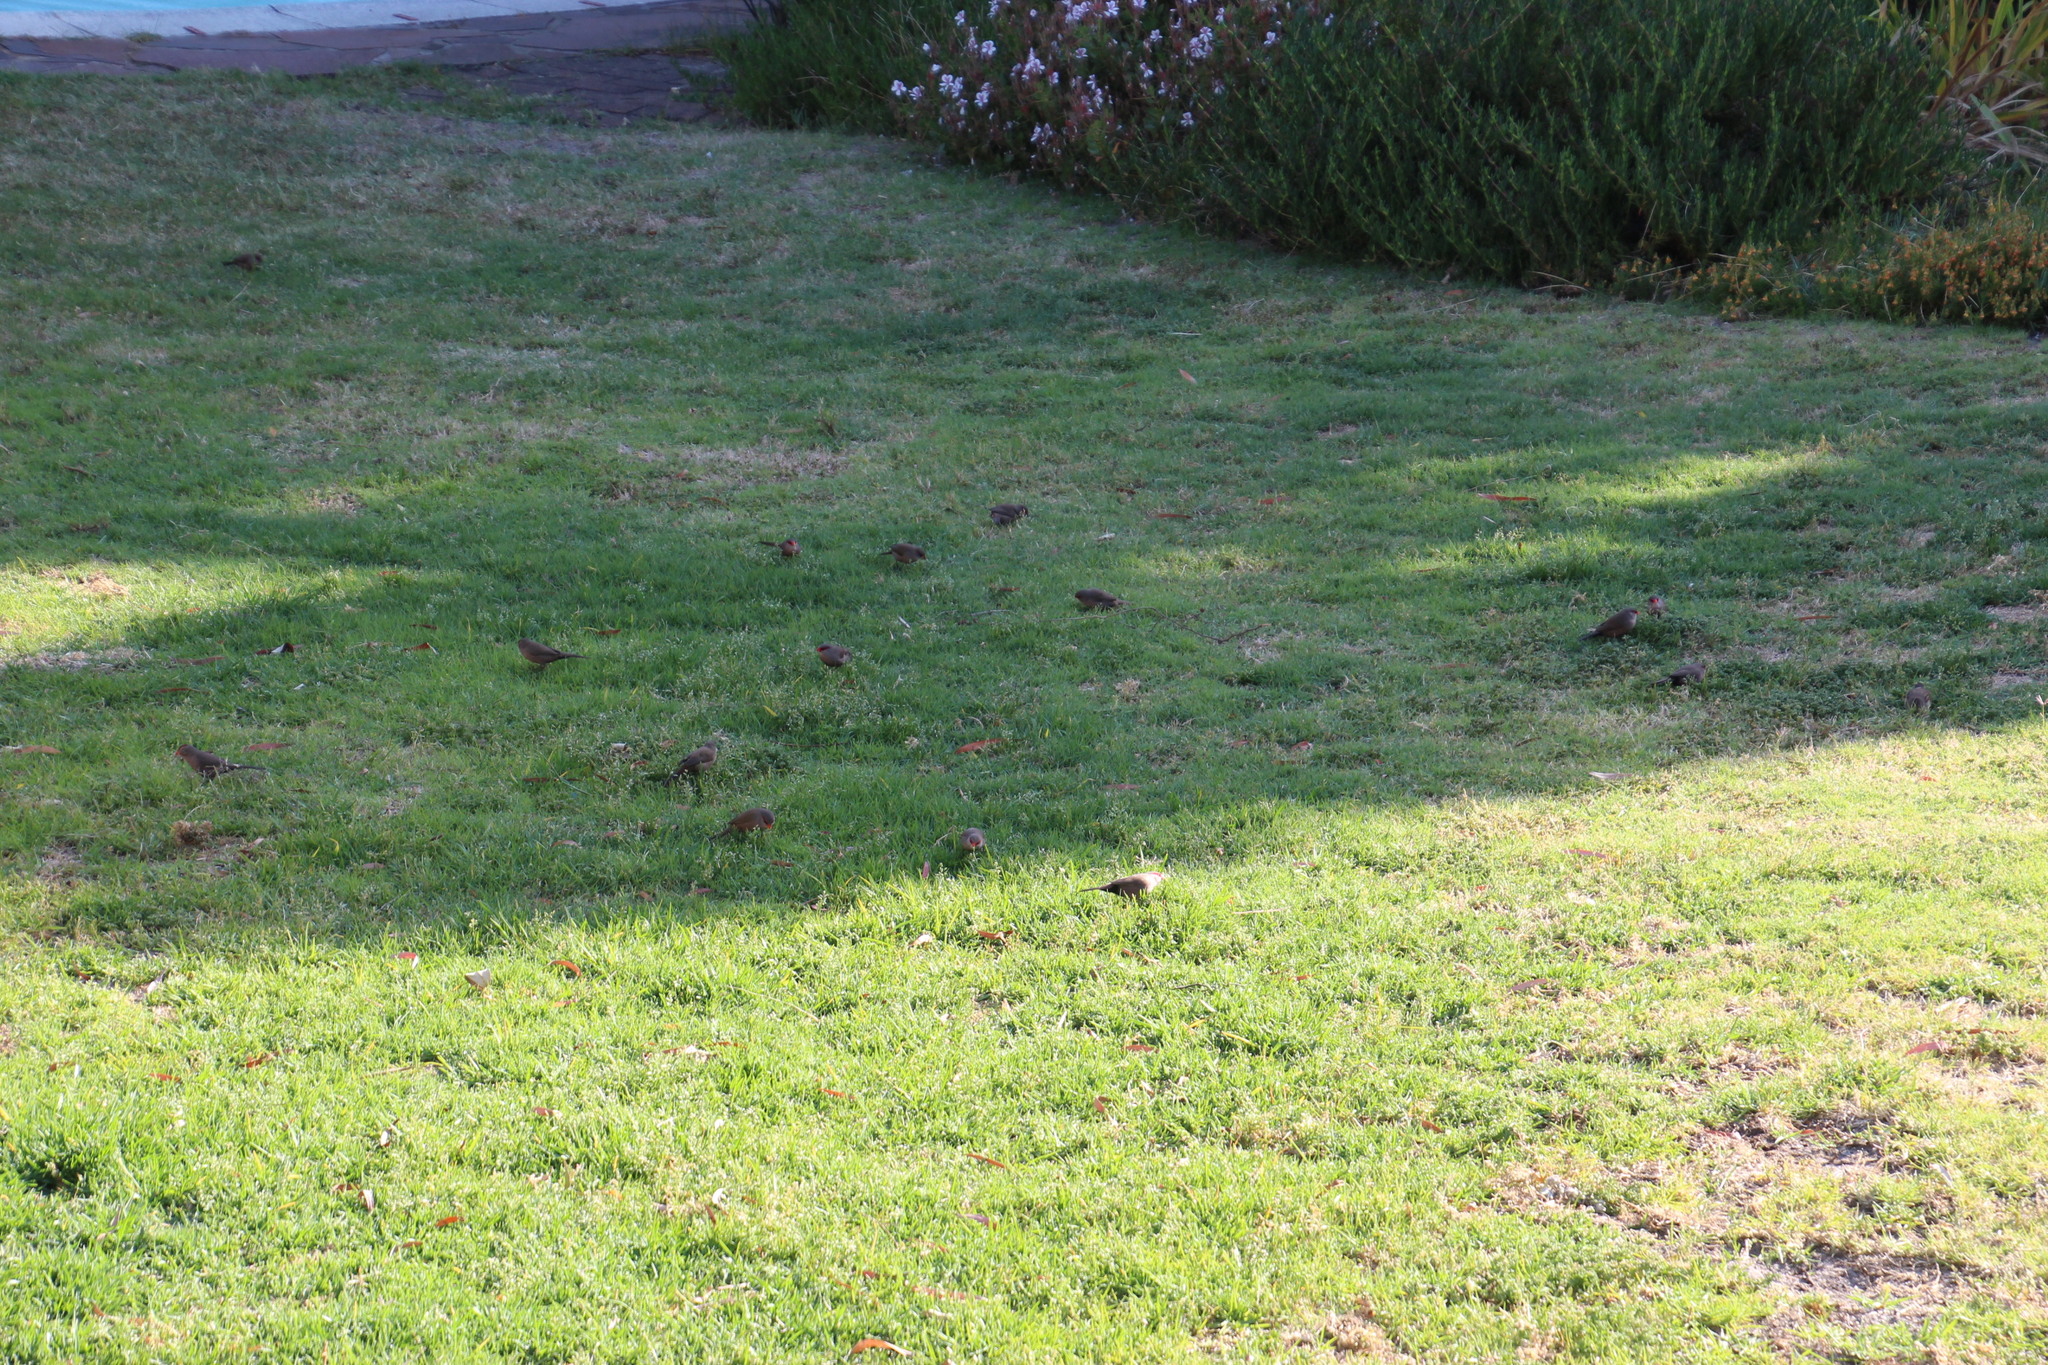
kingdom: Plantae
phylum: Tracheophyta
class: Liliopsida
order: Poales
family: Poaceae
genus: Poa
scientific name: Poa annua
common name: Annual bluegrass
